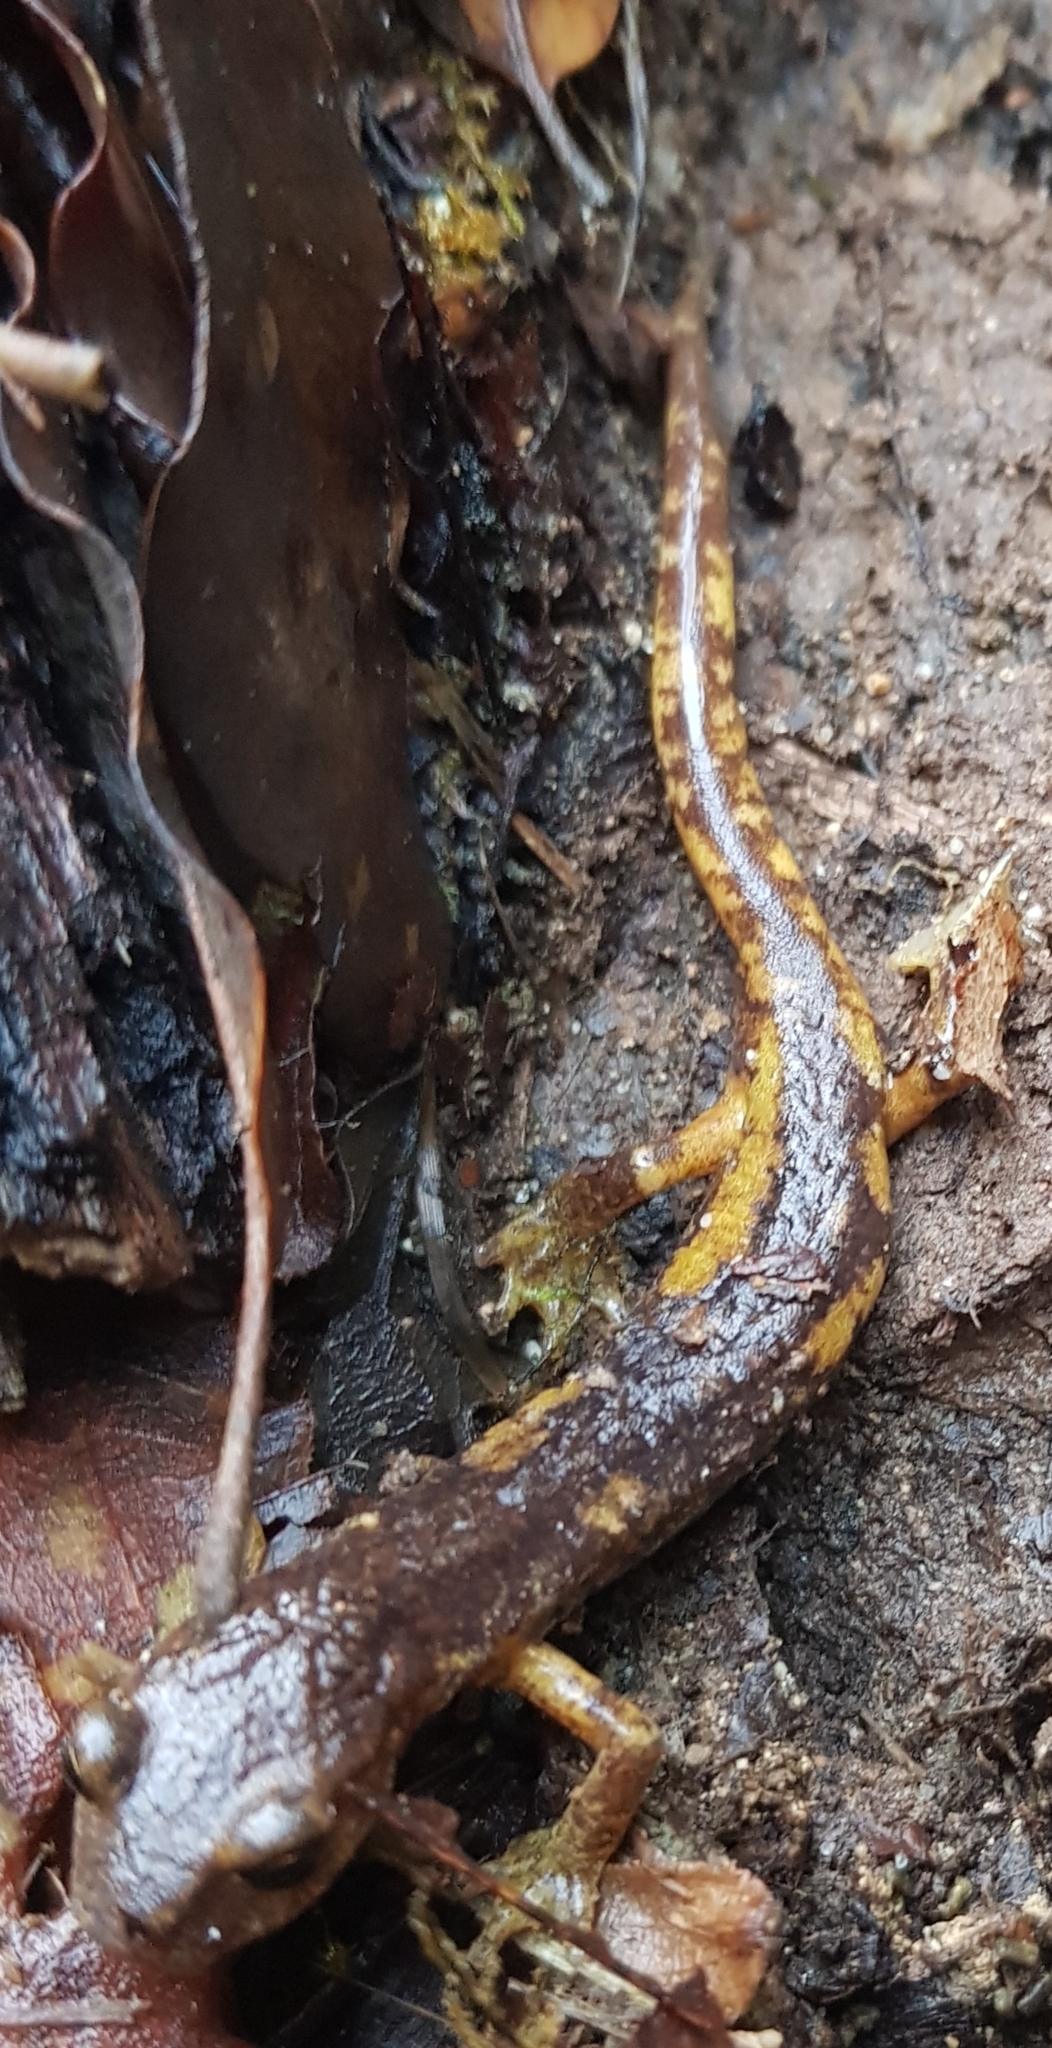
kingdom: Animalia
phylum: Chordata
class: Amphibia
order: Caudata
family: Plethodontidae
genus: Speleomantes
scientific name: Speleomantes ambrosii
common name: Ambrosi's cave salamander
